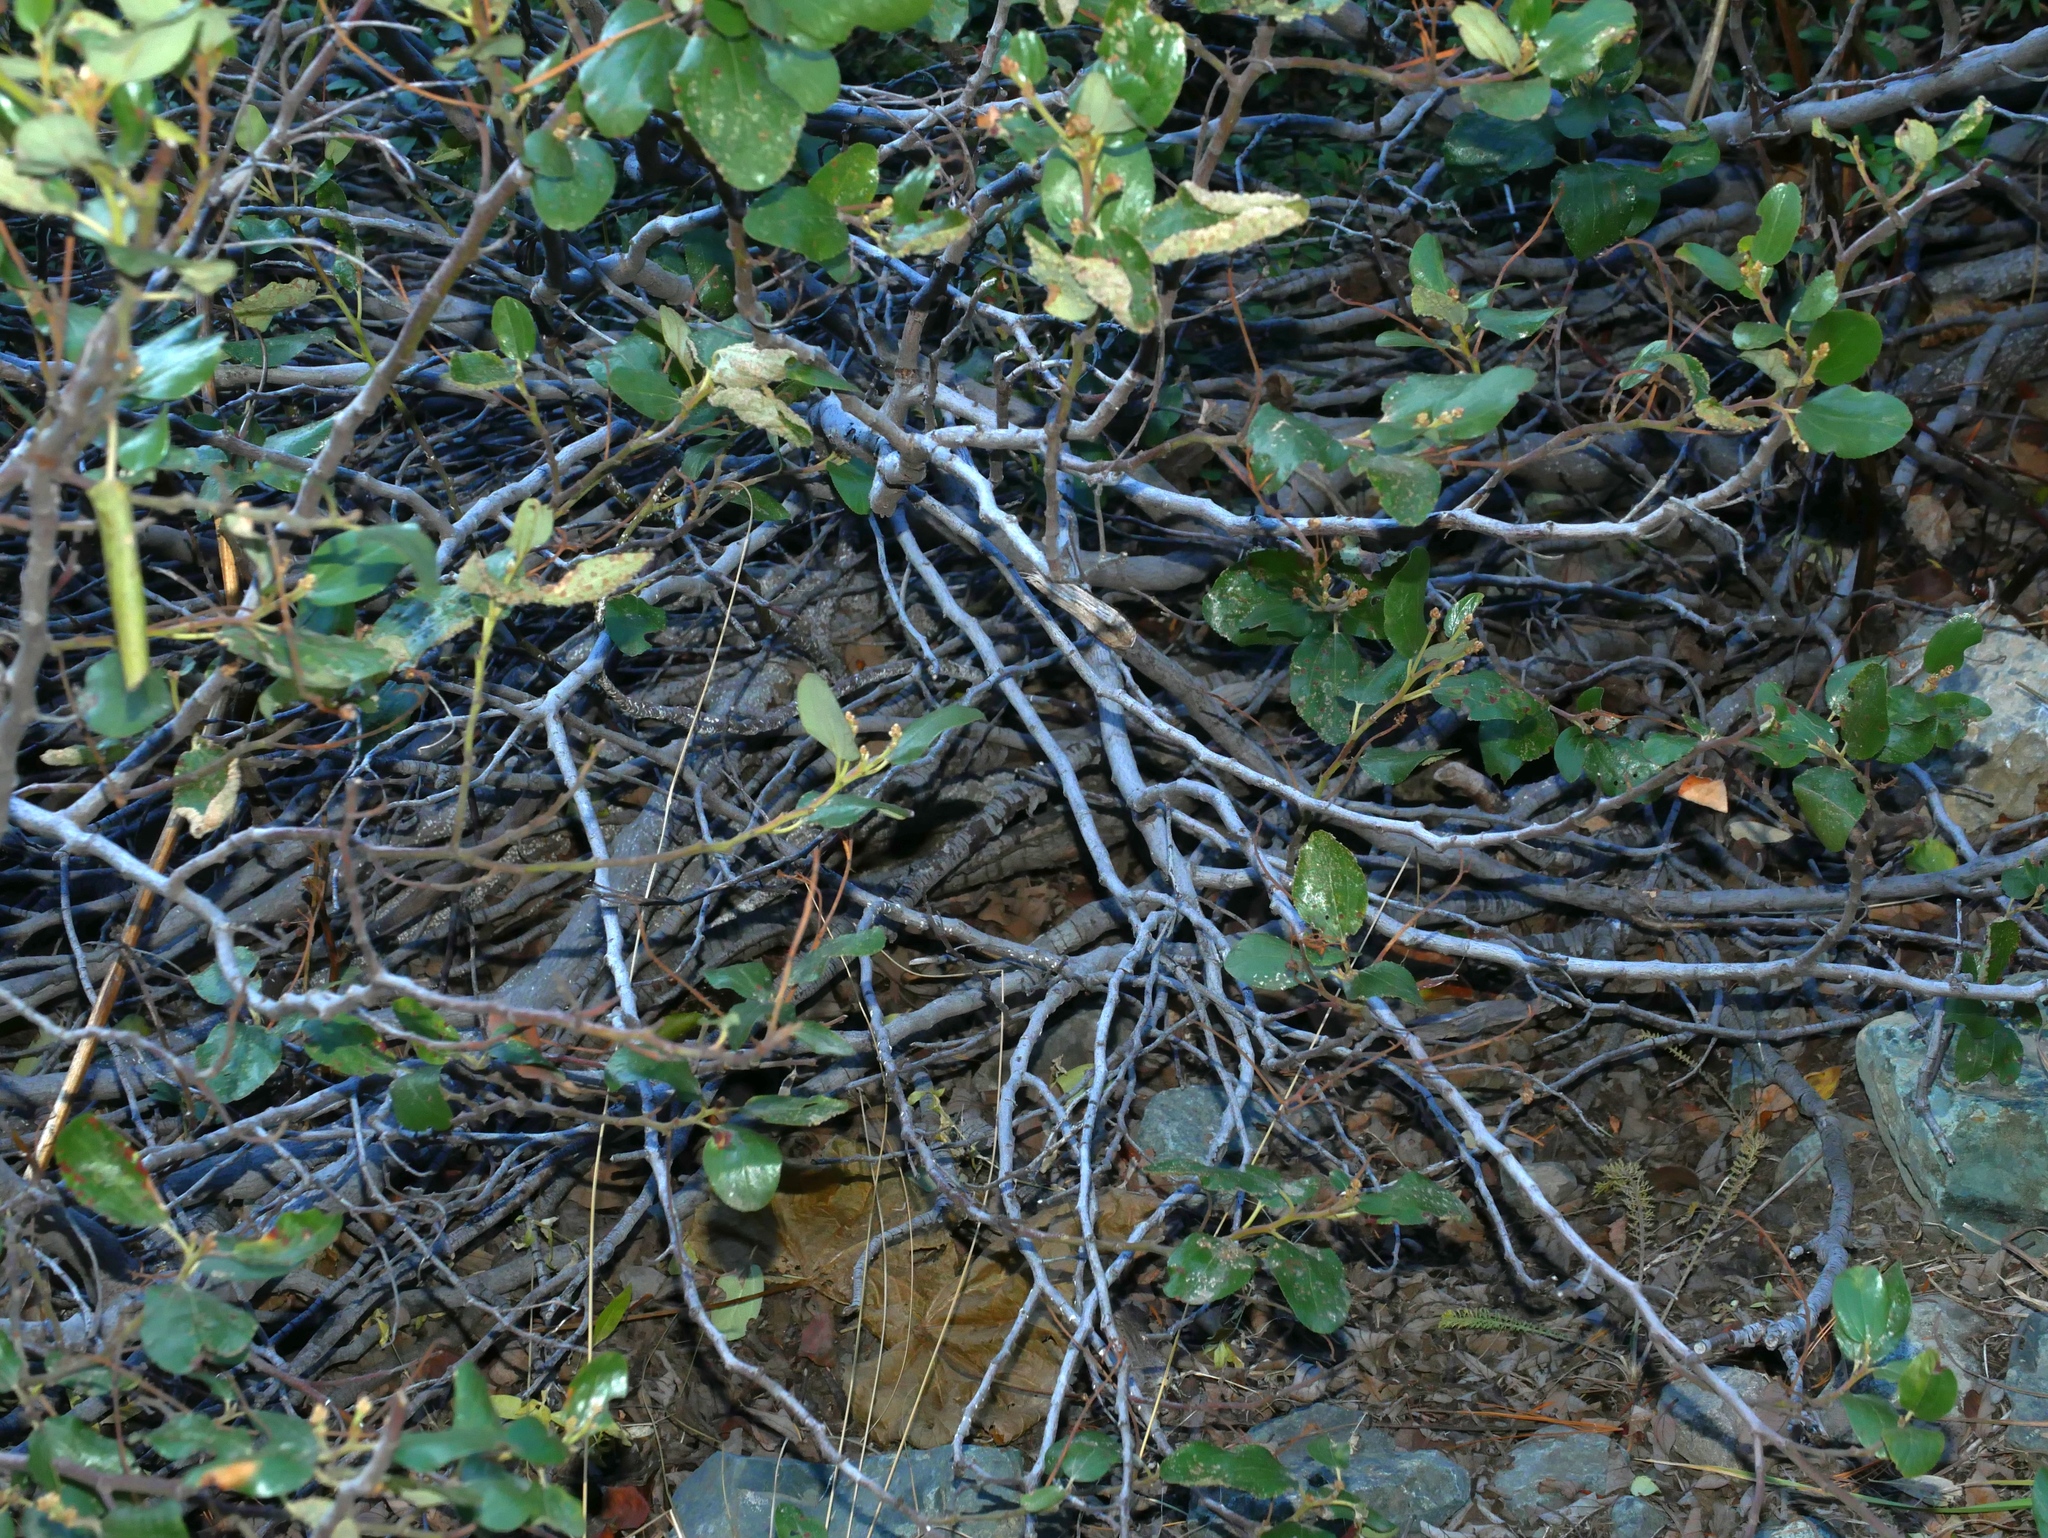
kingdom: Plantae
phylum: Tracheophyta
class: Magnoliopsida
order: Rosales
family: Rhamnaceae
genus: Ceanothus
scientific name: Ceanothus velutinus
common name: Snowbrush
